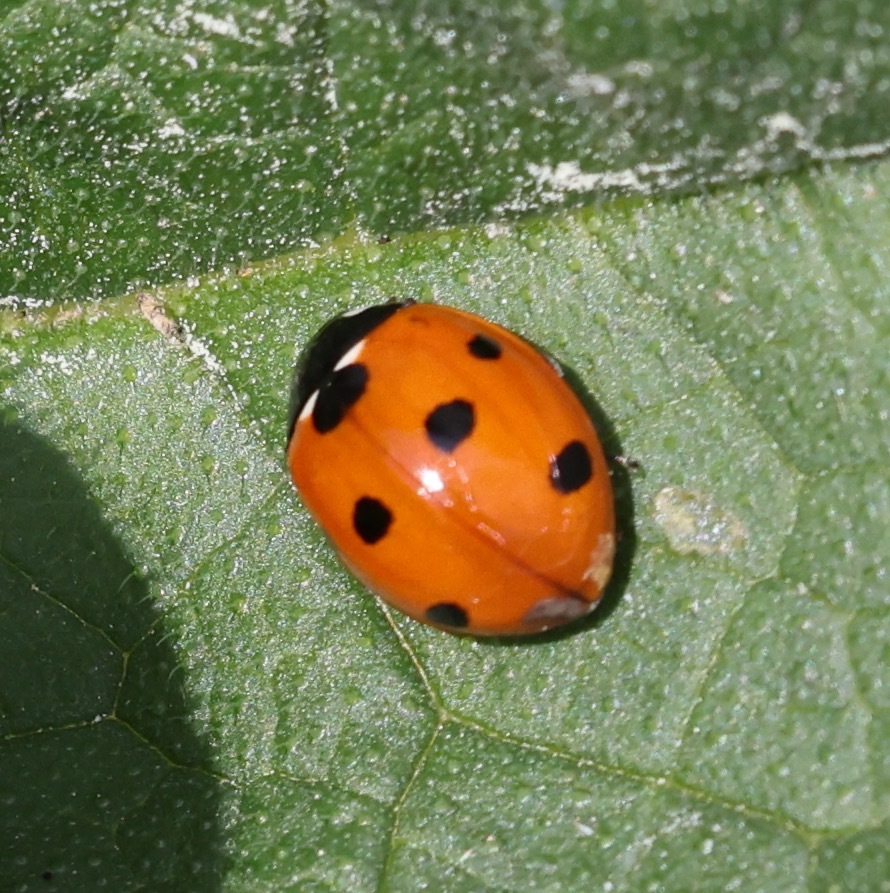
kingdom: Animalia
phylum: Arthropoda
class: Insecta
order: Coleoptera
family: Coccinellidae
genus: Coccinella
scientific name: Coccinella septempunctata
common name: Sevenspotted lady beetle
